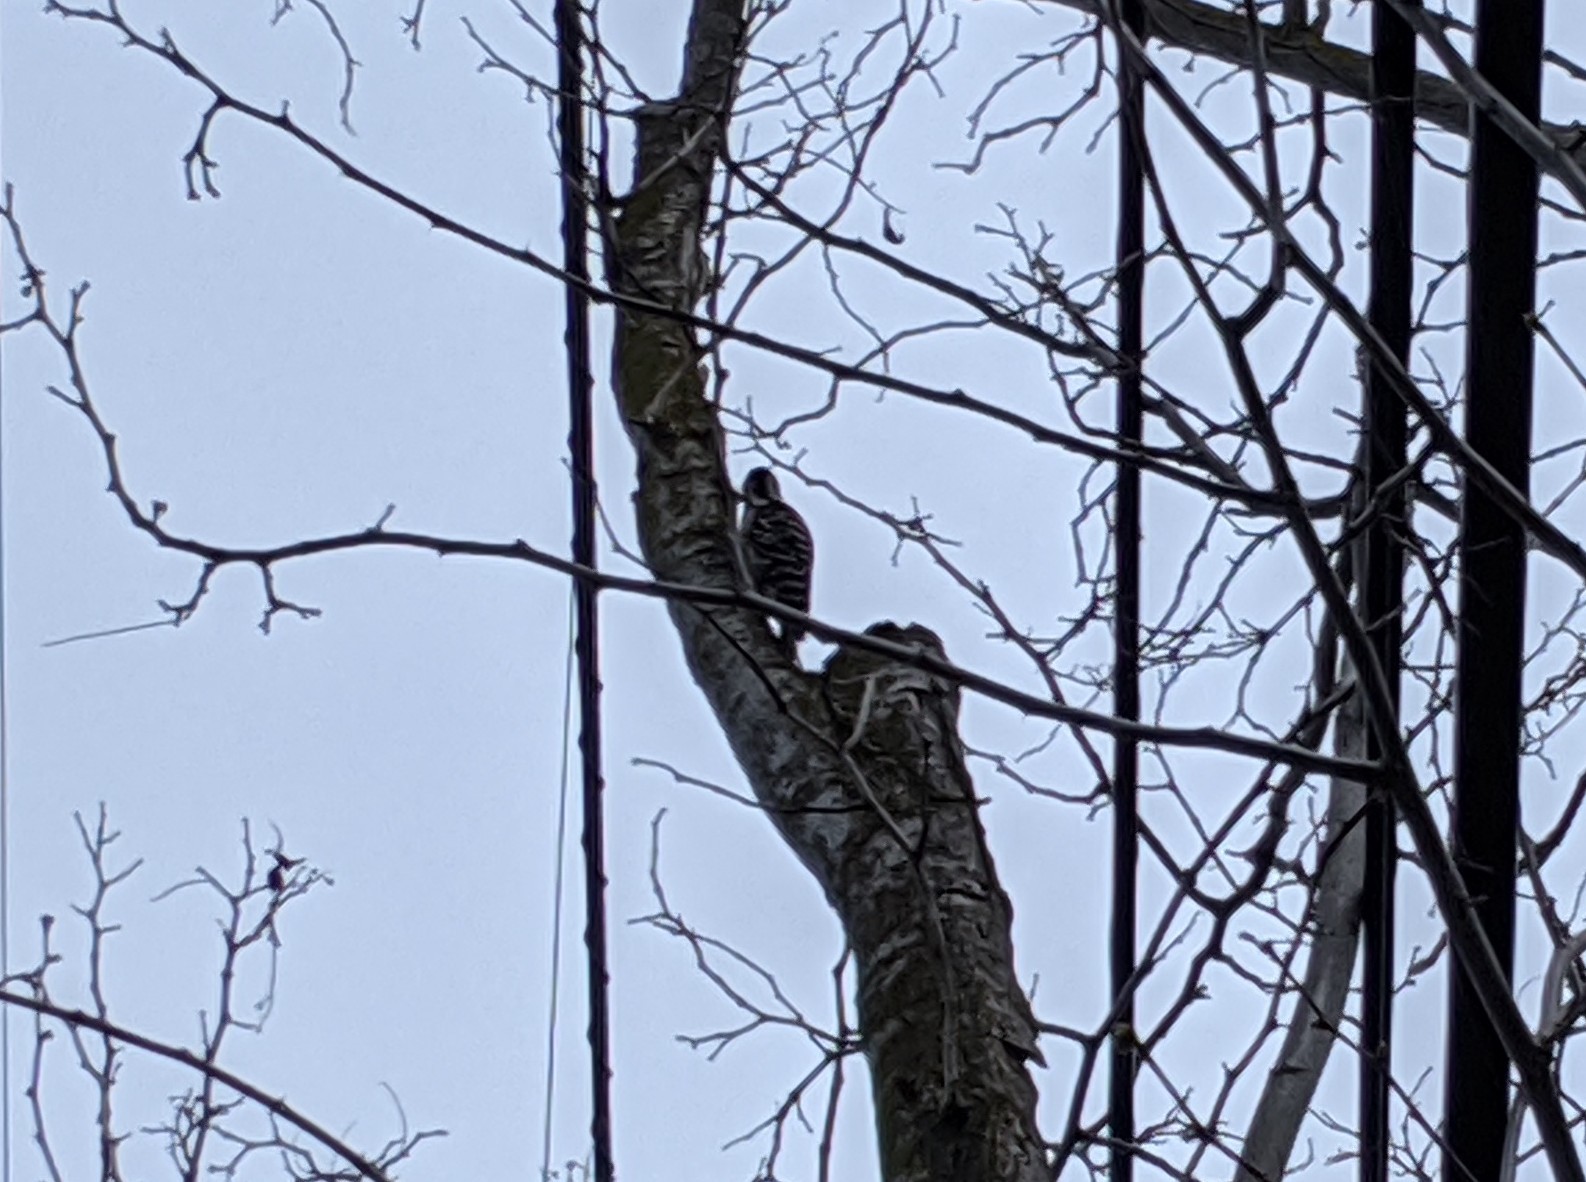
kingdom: Animalia
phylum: Chordata
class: Aves
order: Piciformes
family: Picidae
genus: Dryobates
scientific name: Dryobates nuttallii
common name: Nuttall's woodpecker
